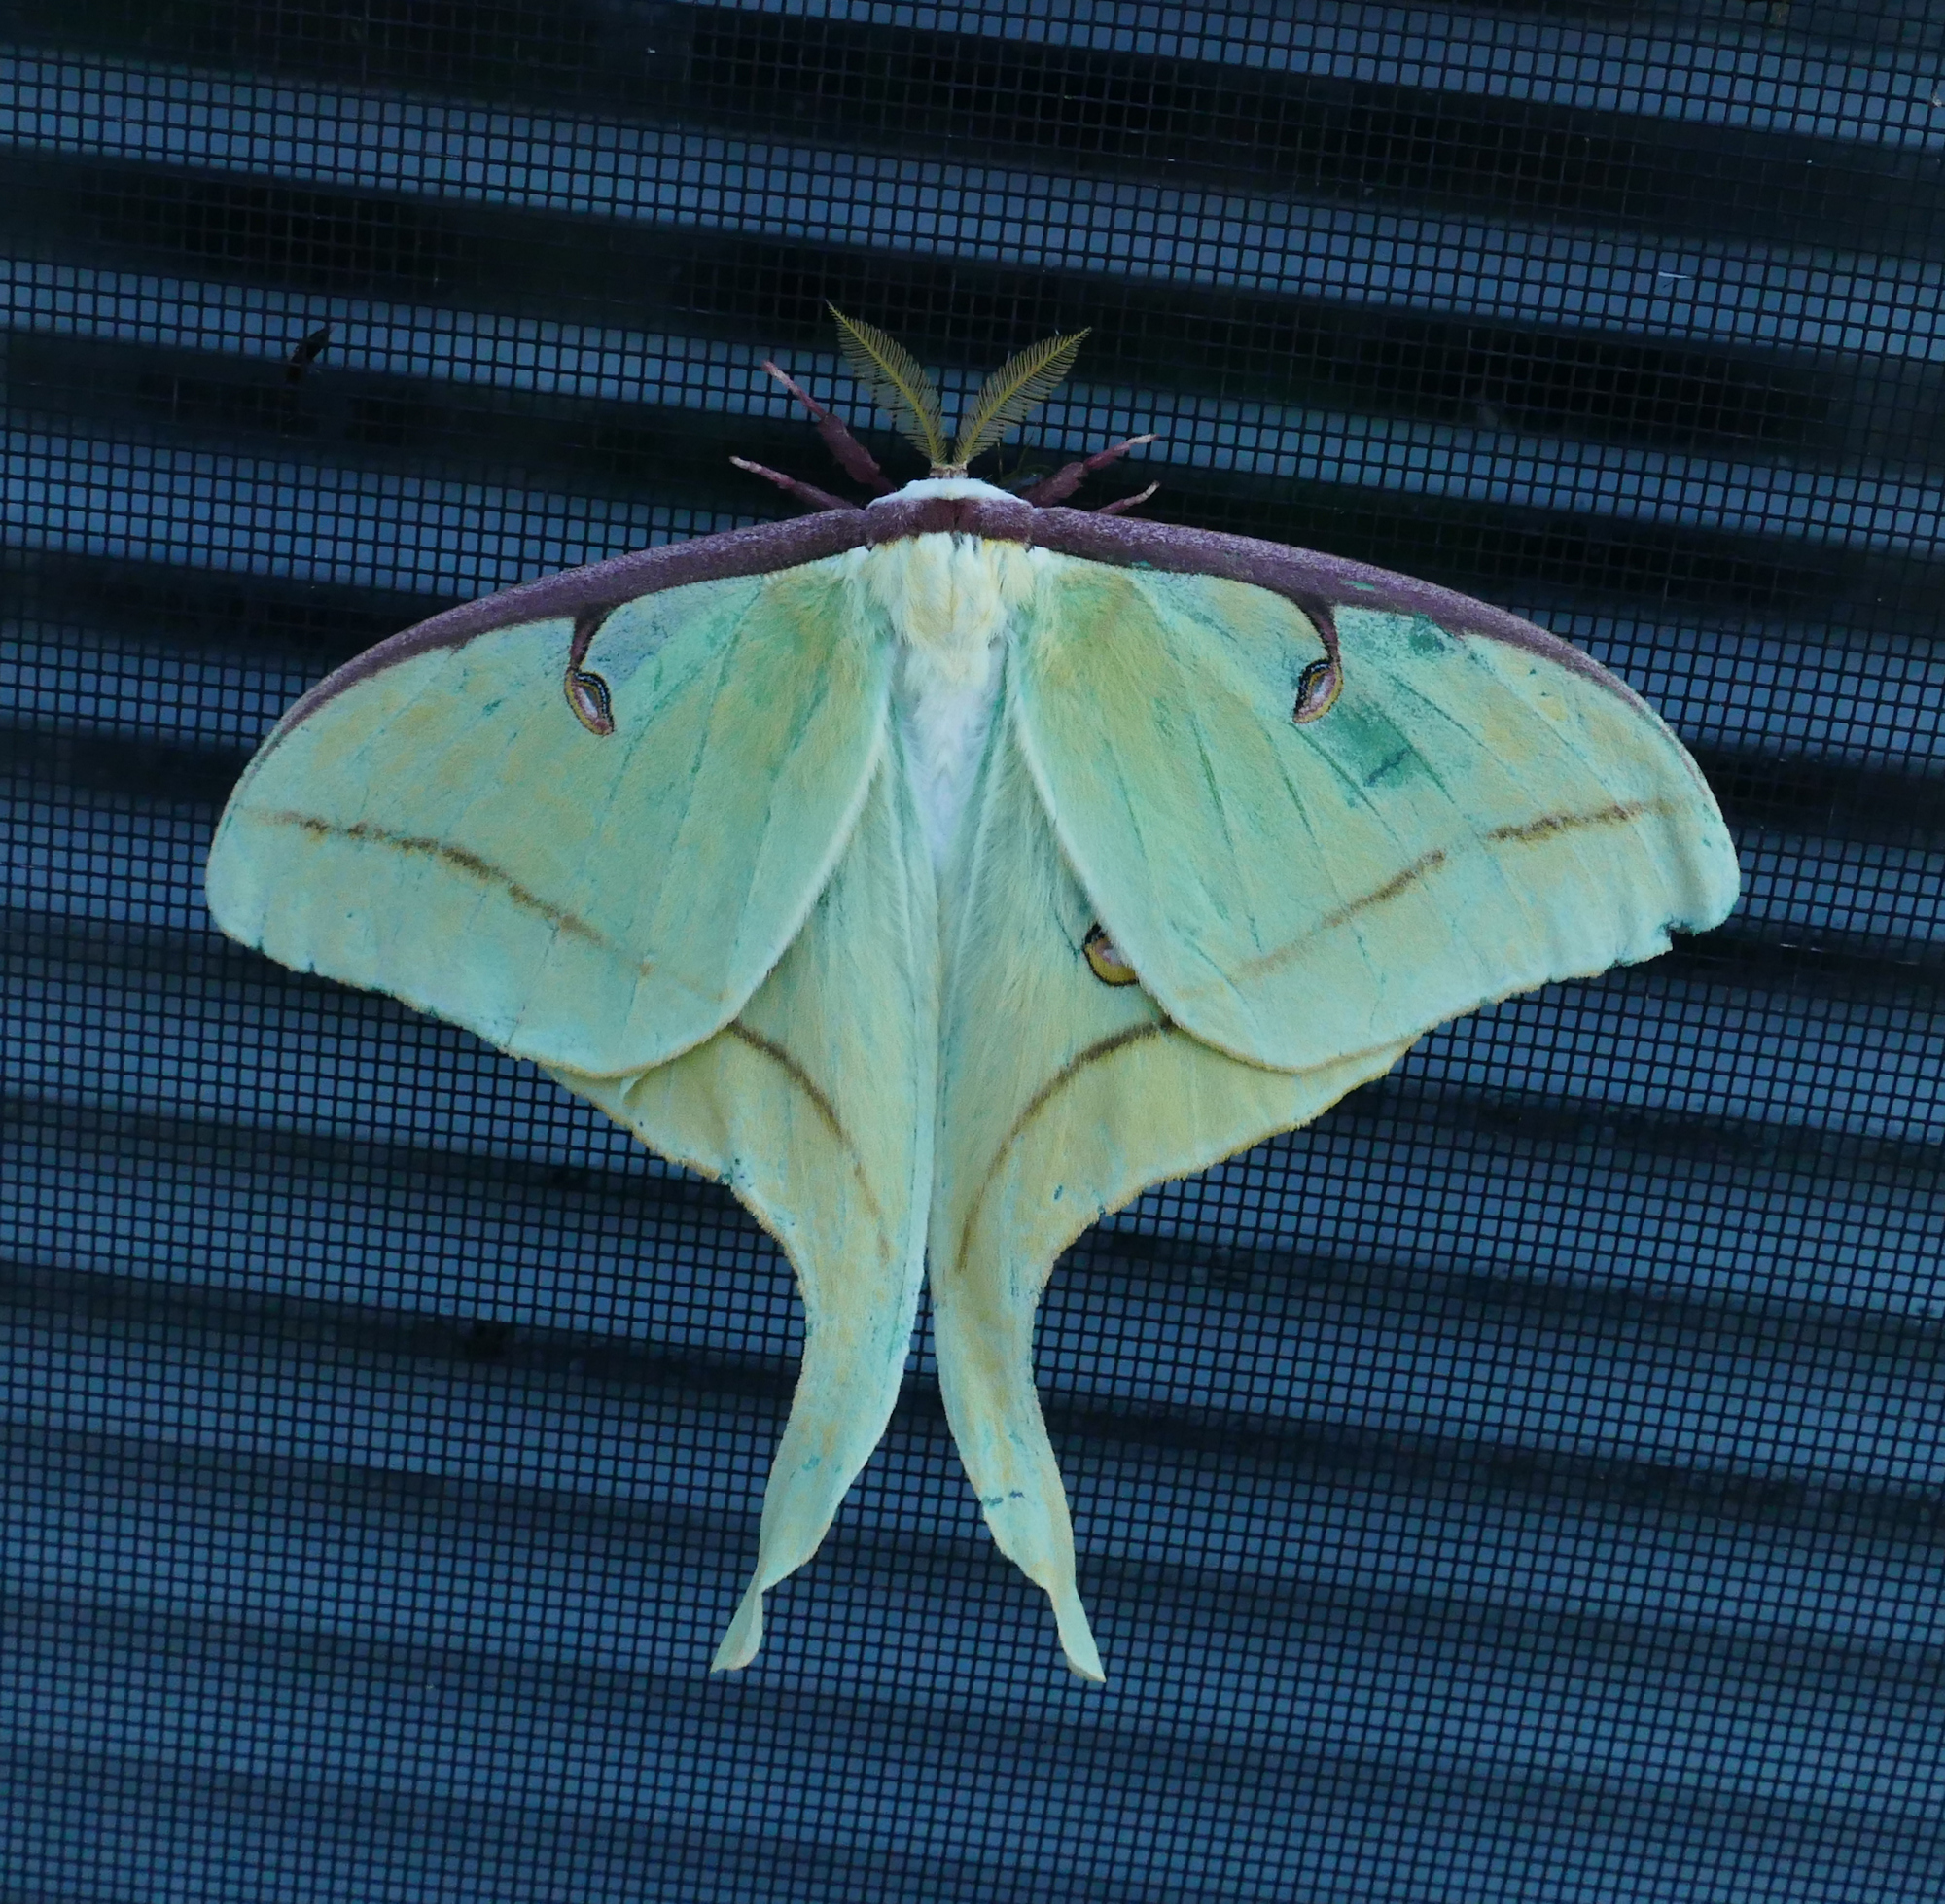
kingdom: Animalia
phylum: Arthropoda
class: Insecta
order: Lepidoptera
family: Saturniidae
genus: Actias
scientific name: Actias luna
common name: Luna moth
